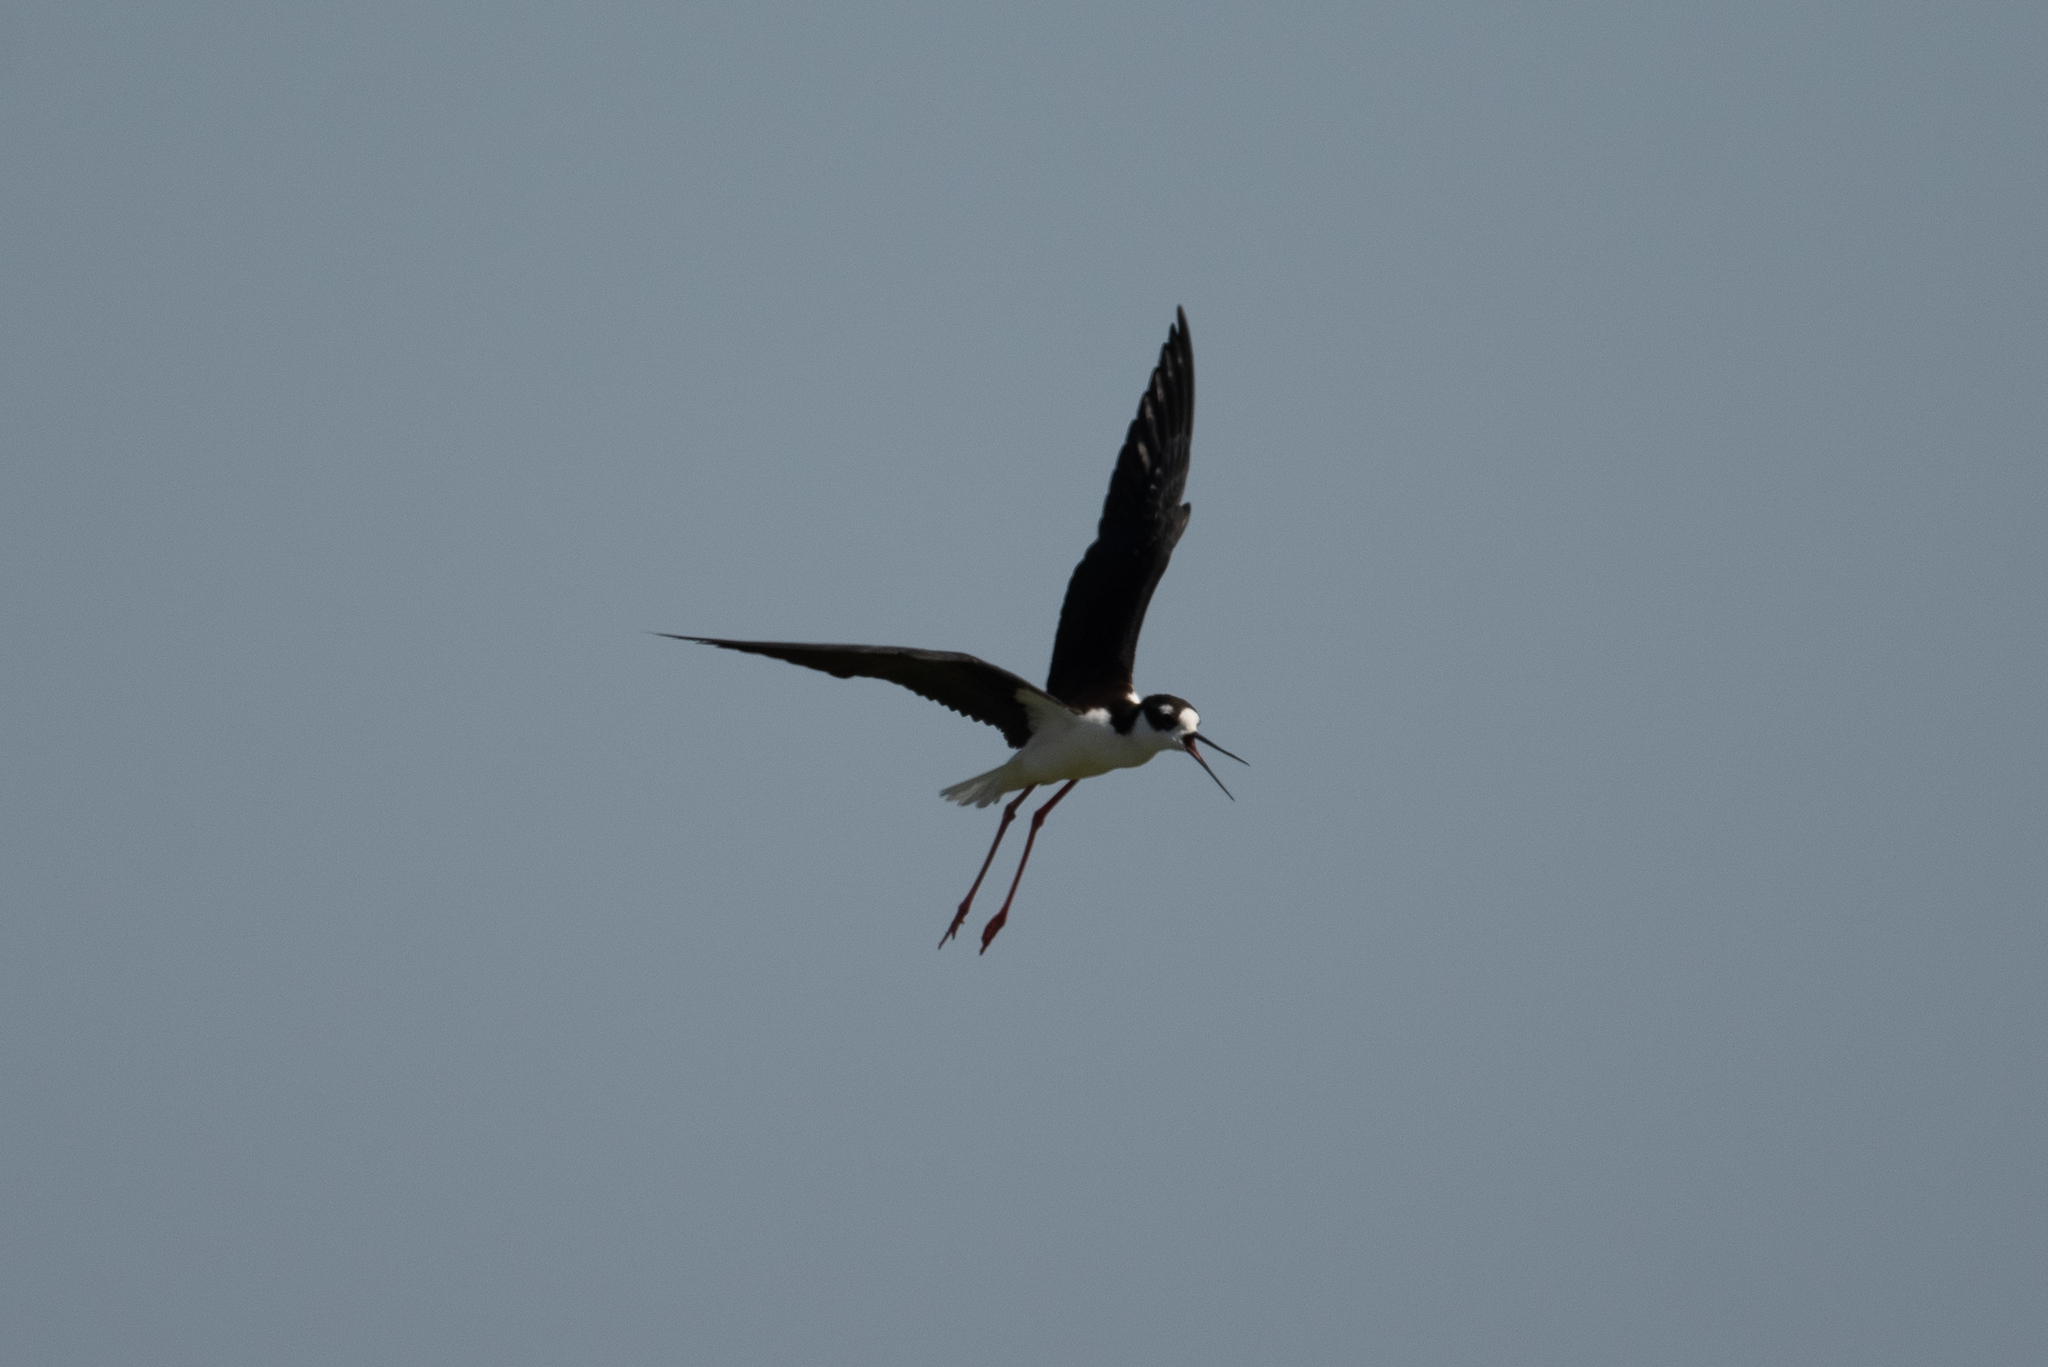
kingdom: Animalia
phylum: Chordata
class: Aves
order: Charadriiformes
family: Recurvirostridae
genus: Himantopus
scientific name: Himantopus mexicanus
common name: Black-necked stilt
